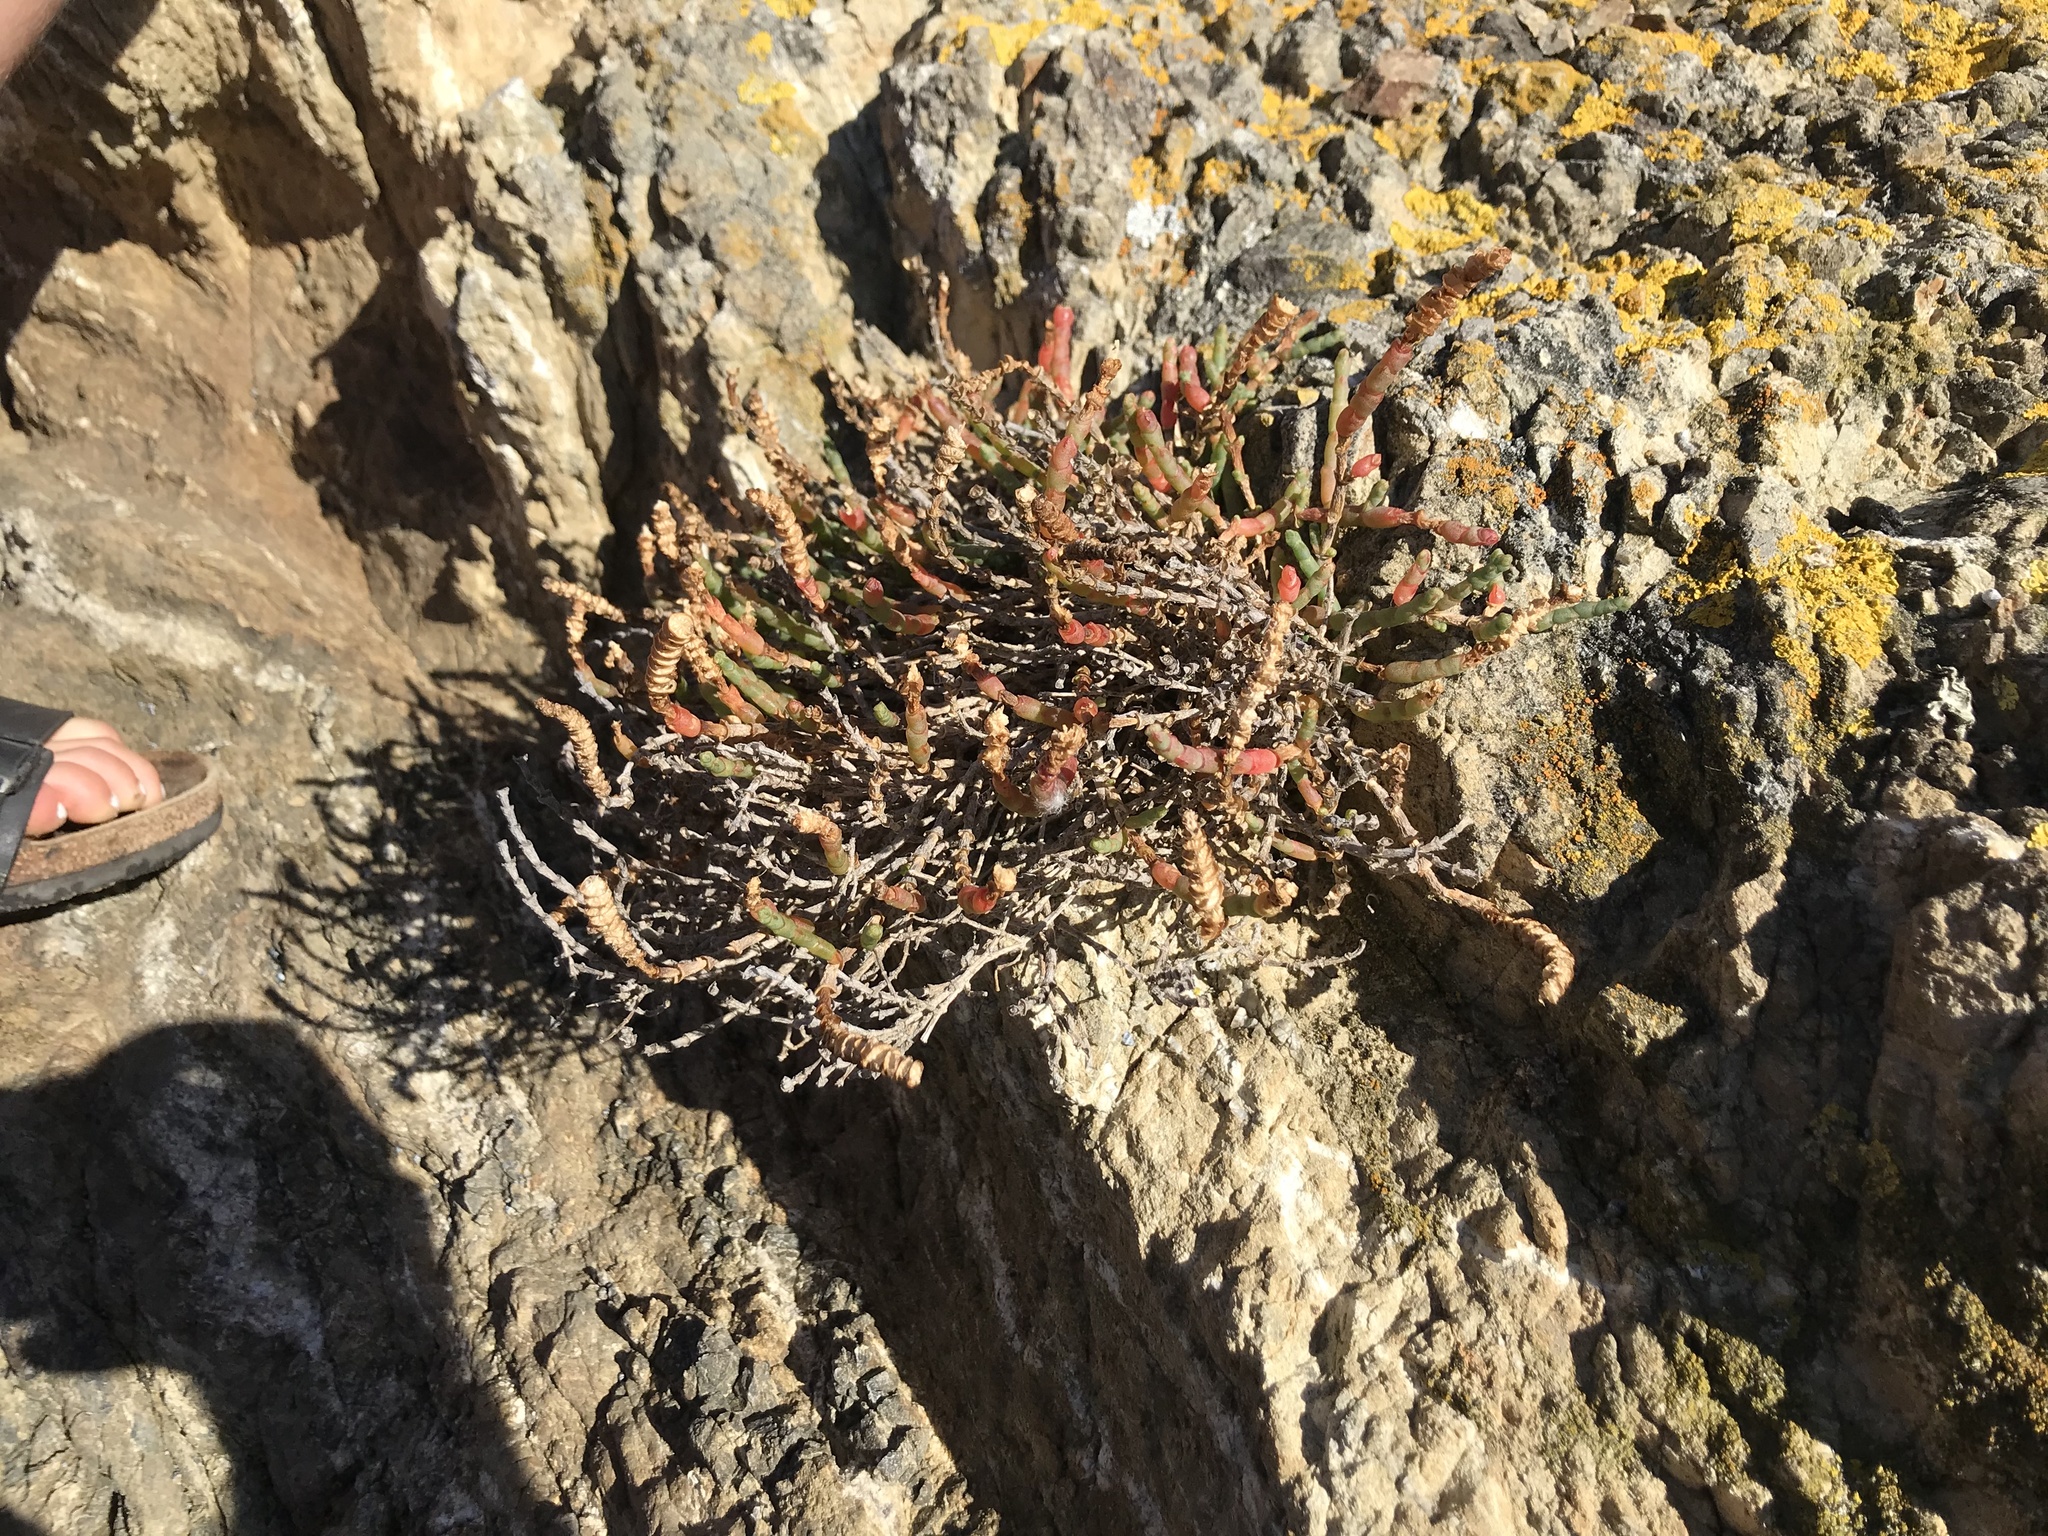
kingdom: Plantae
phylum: Tracheophyta
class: Magnoliopsida
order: Caryophyllales
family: Amaranthaceae
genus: Salicornia
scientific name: Salicornia quinqueflora
